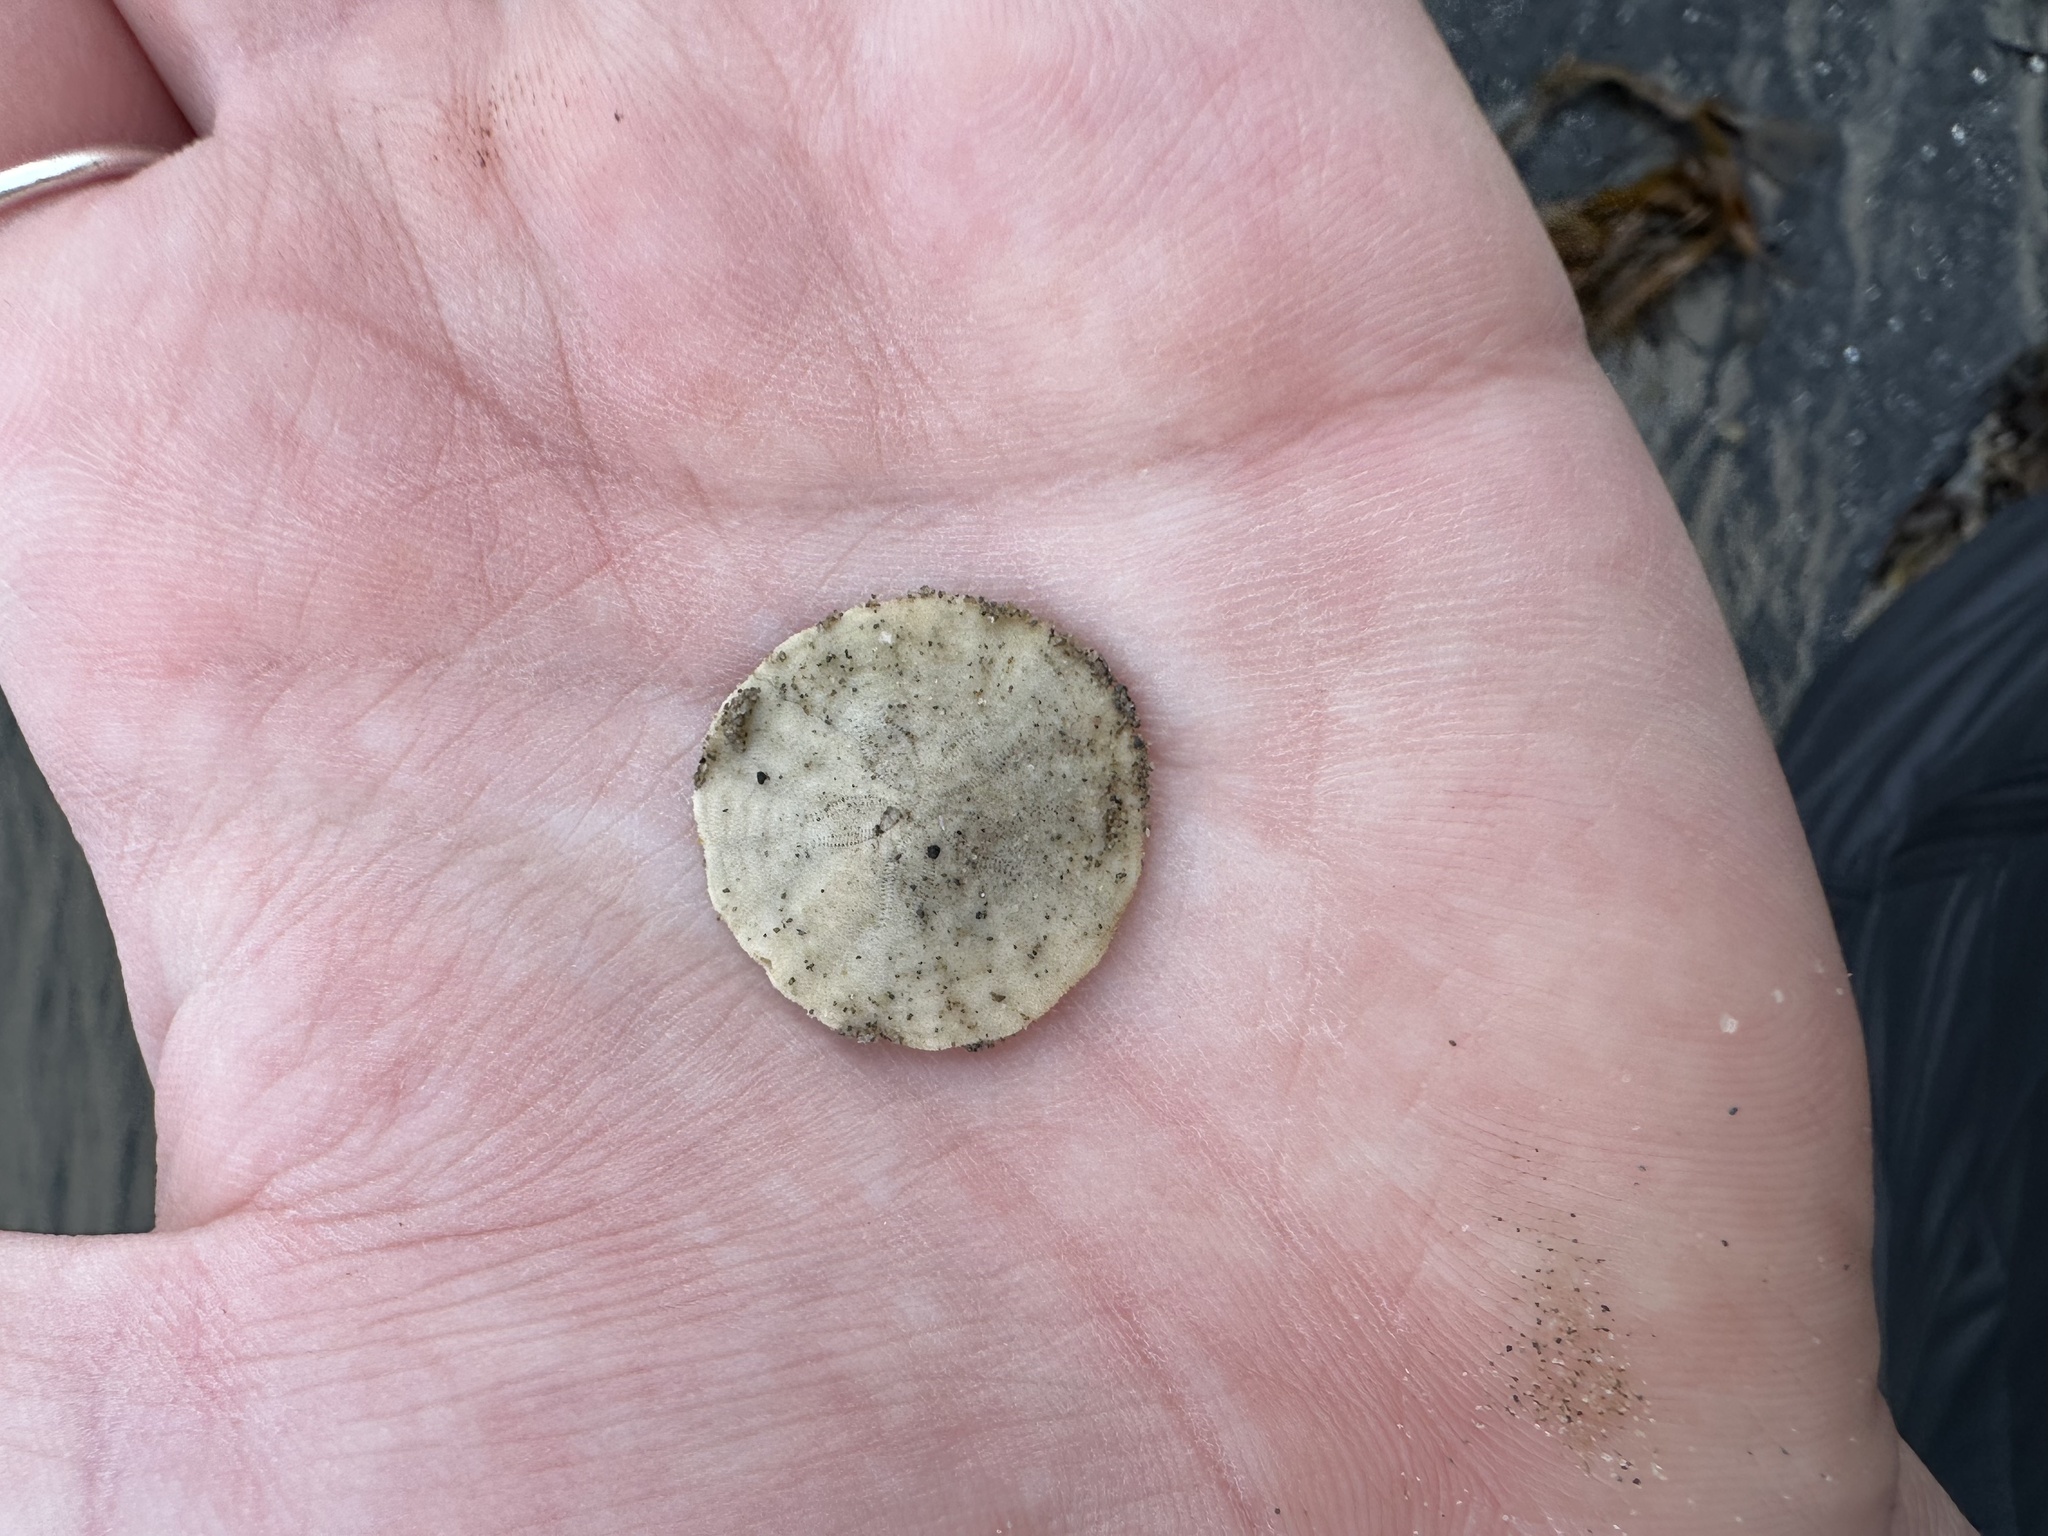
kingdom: Animalia
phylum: Echinodermata
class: Echinoidea
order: Echinolampadacea
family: Echinarachniidae
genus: Echinarachnius
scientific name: Echinarachnius parma
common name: Common sand dollar
